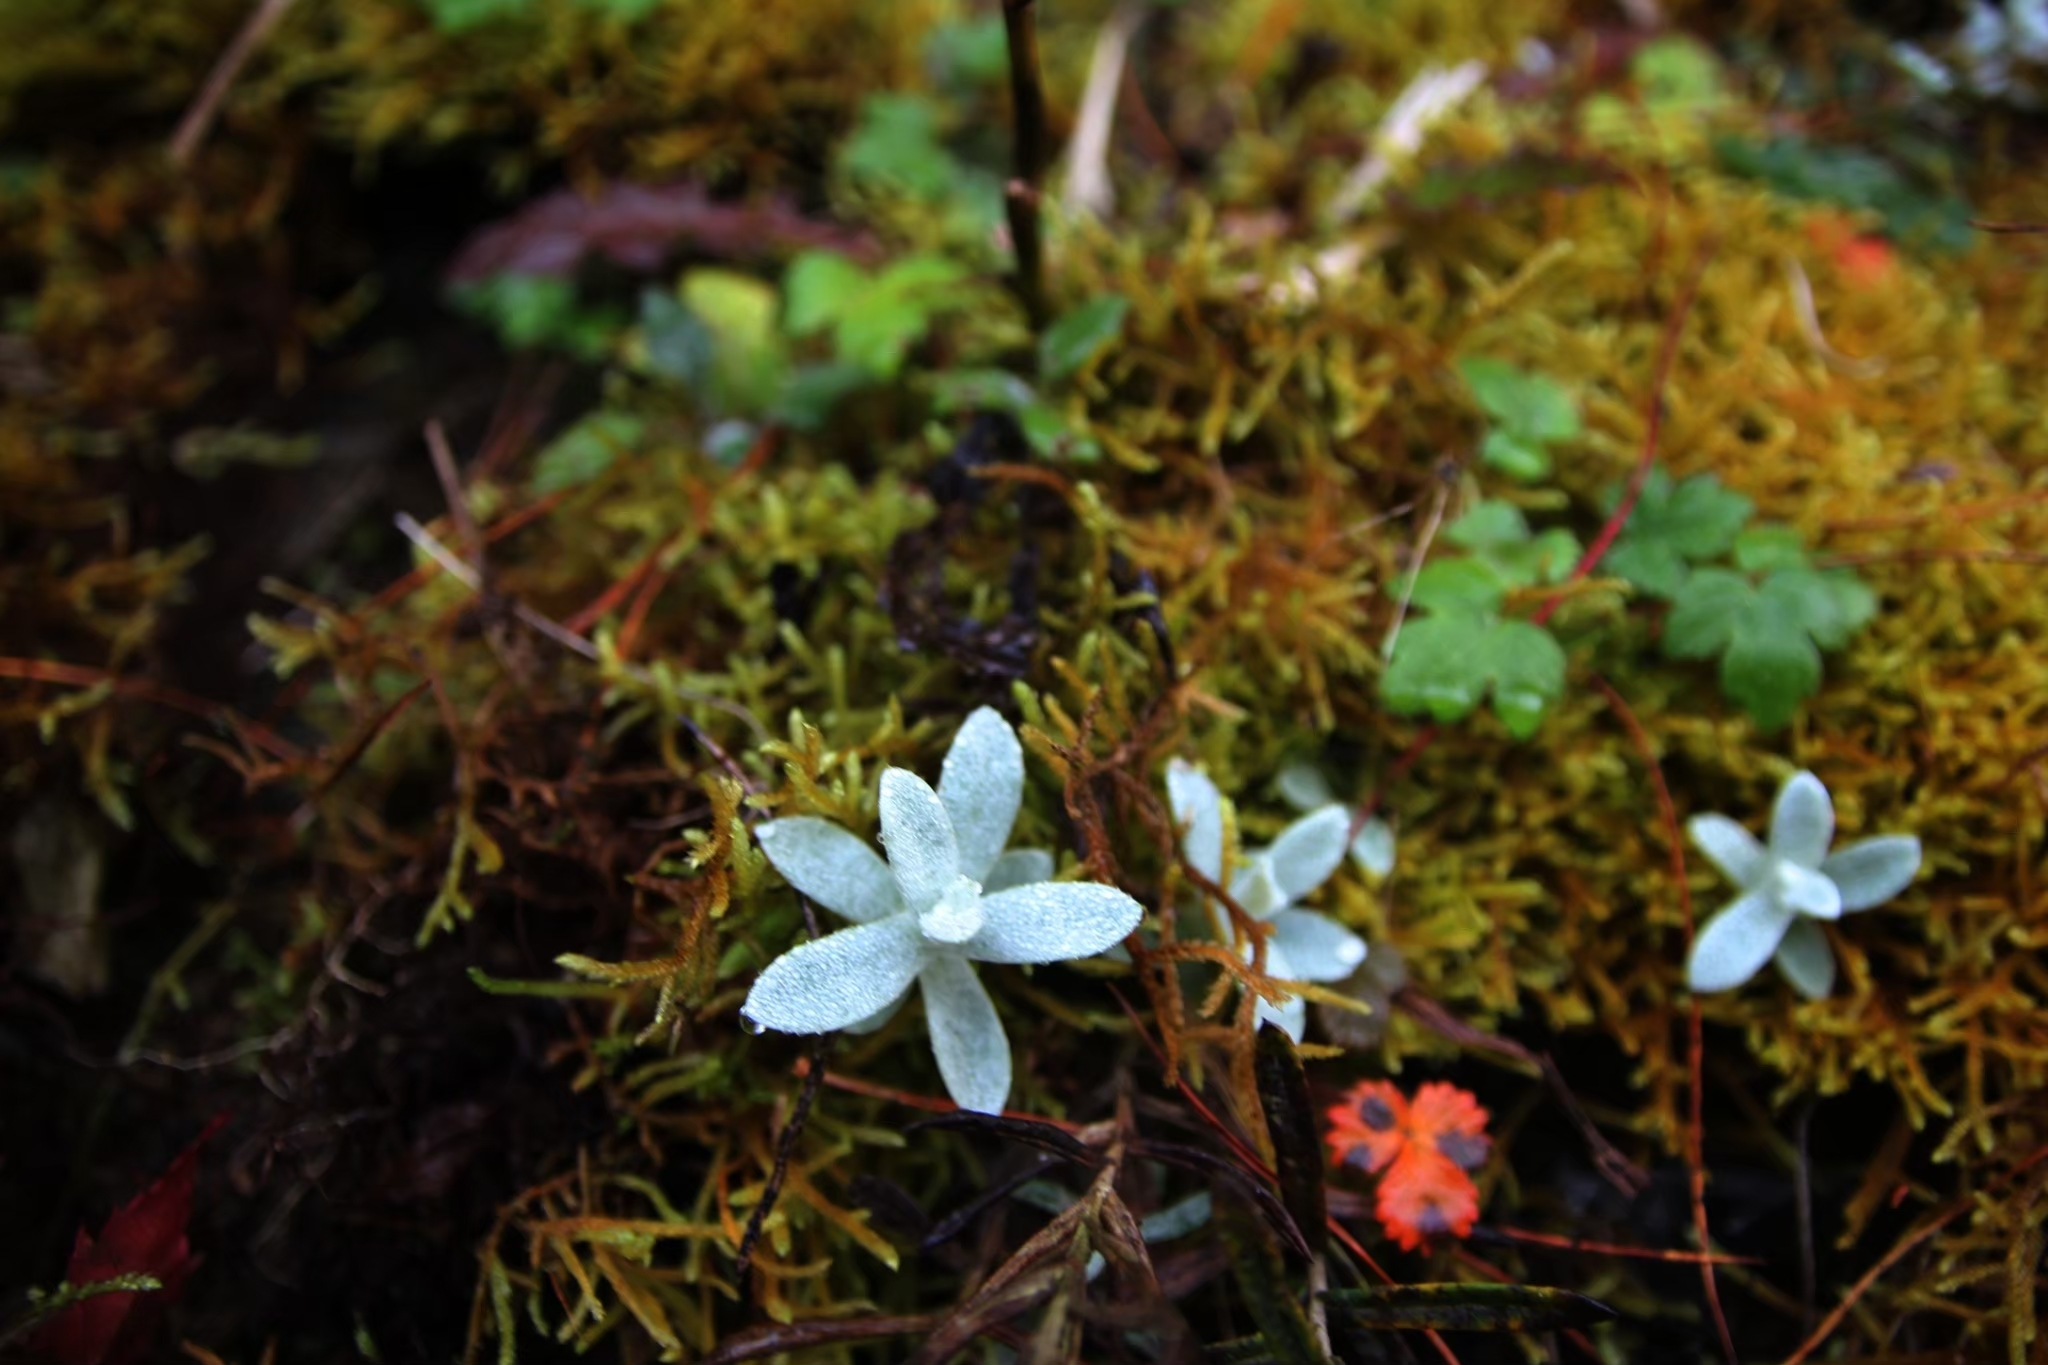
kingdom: Plantae
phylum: Tracheophyta
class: Magnoliopsida
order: Asterales
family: Asteraceae
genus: Anaphalis
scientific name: Anaphalis nepalensis
